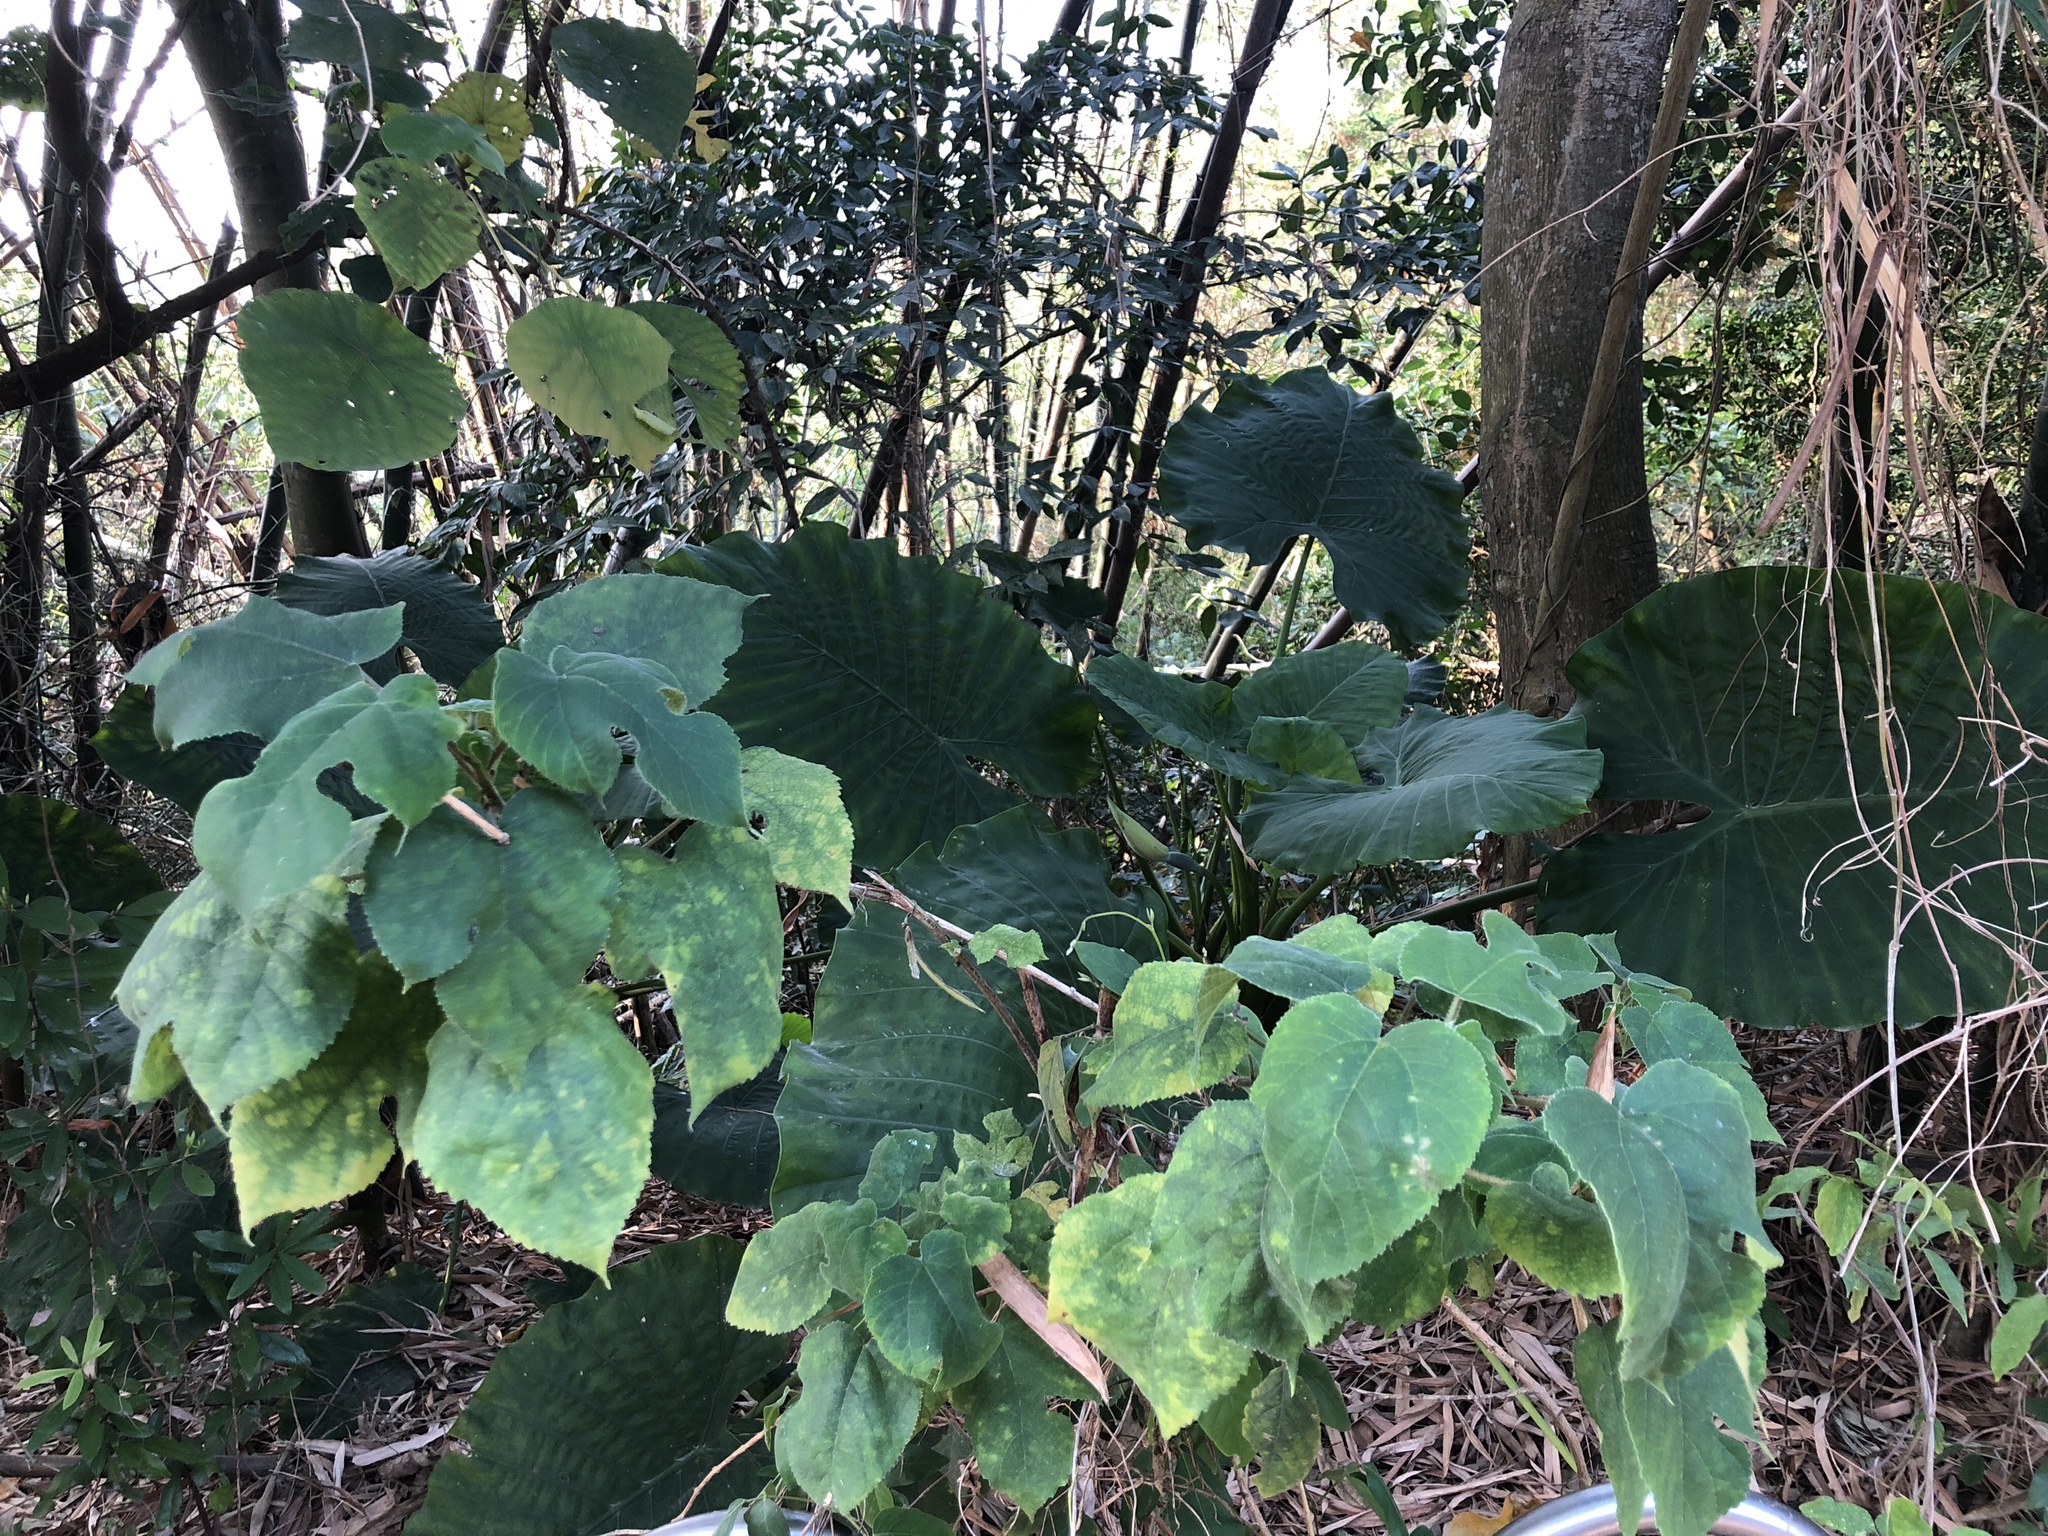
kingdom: Plantae
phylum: Tracheophyta
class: Magnoliopsida
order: Rosales
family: Moraceae
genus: Broussonetia
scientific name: Broussonetia papyrifera
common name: Paper mulberry
